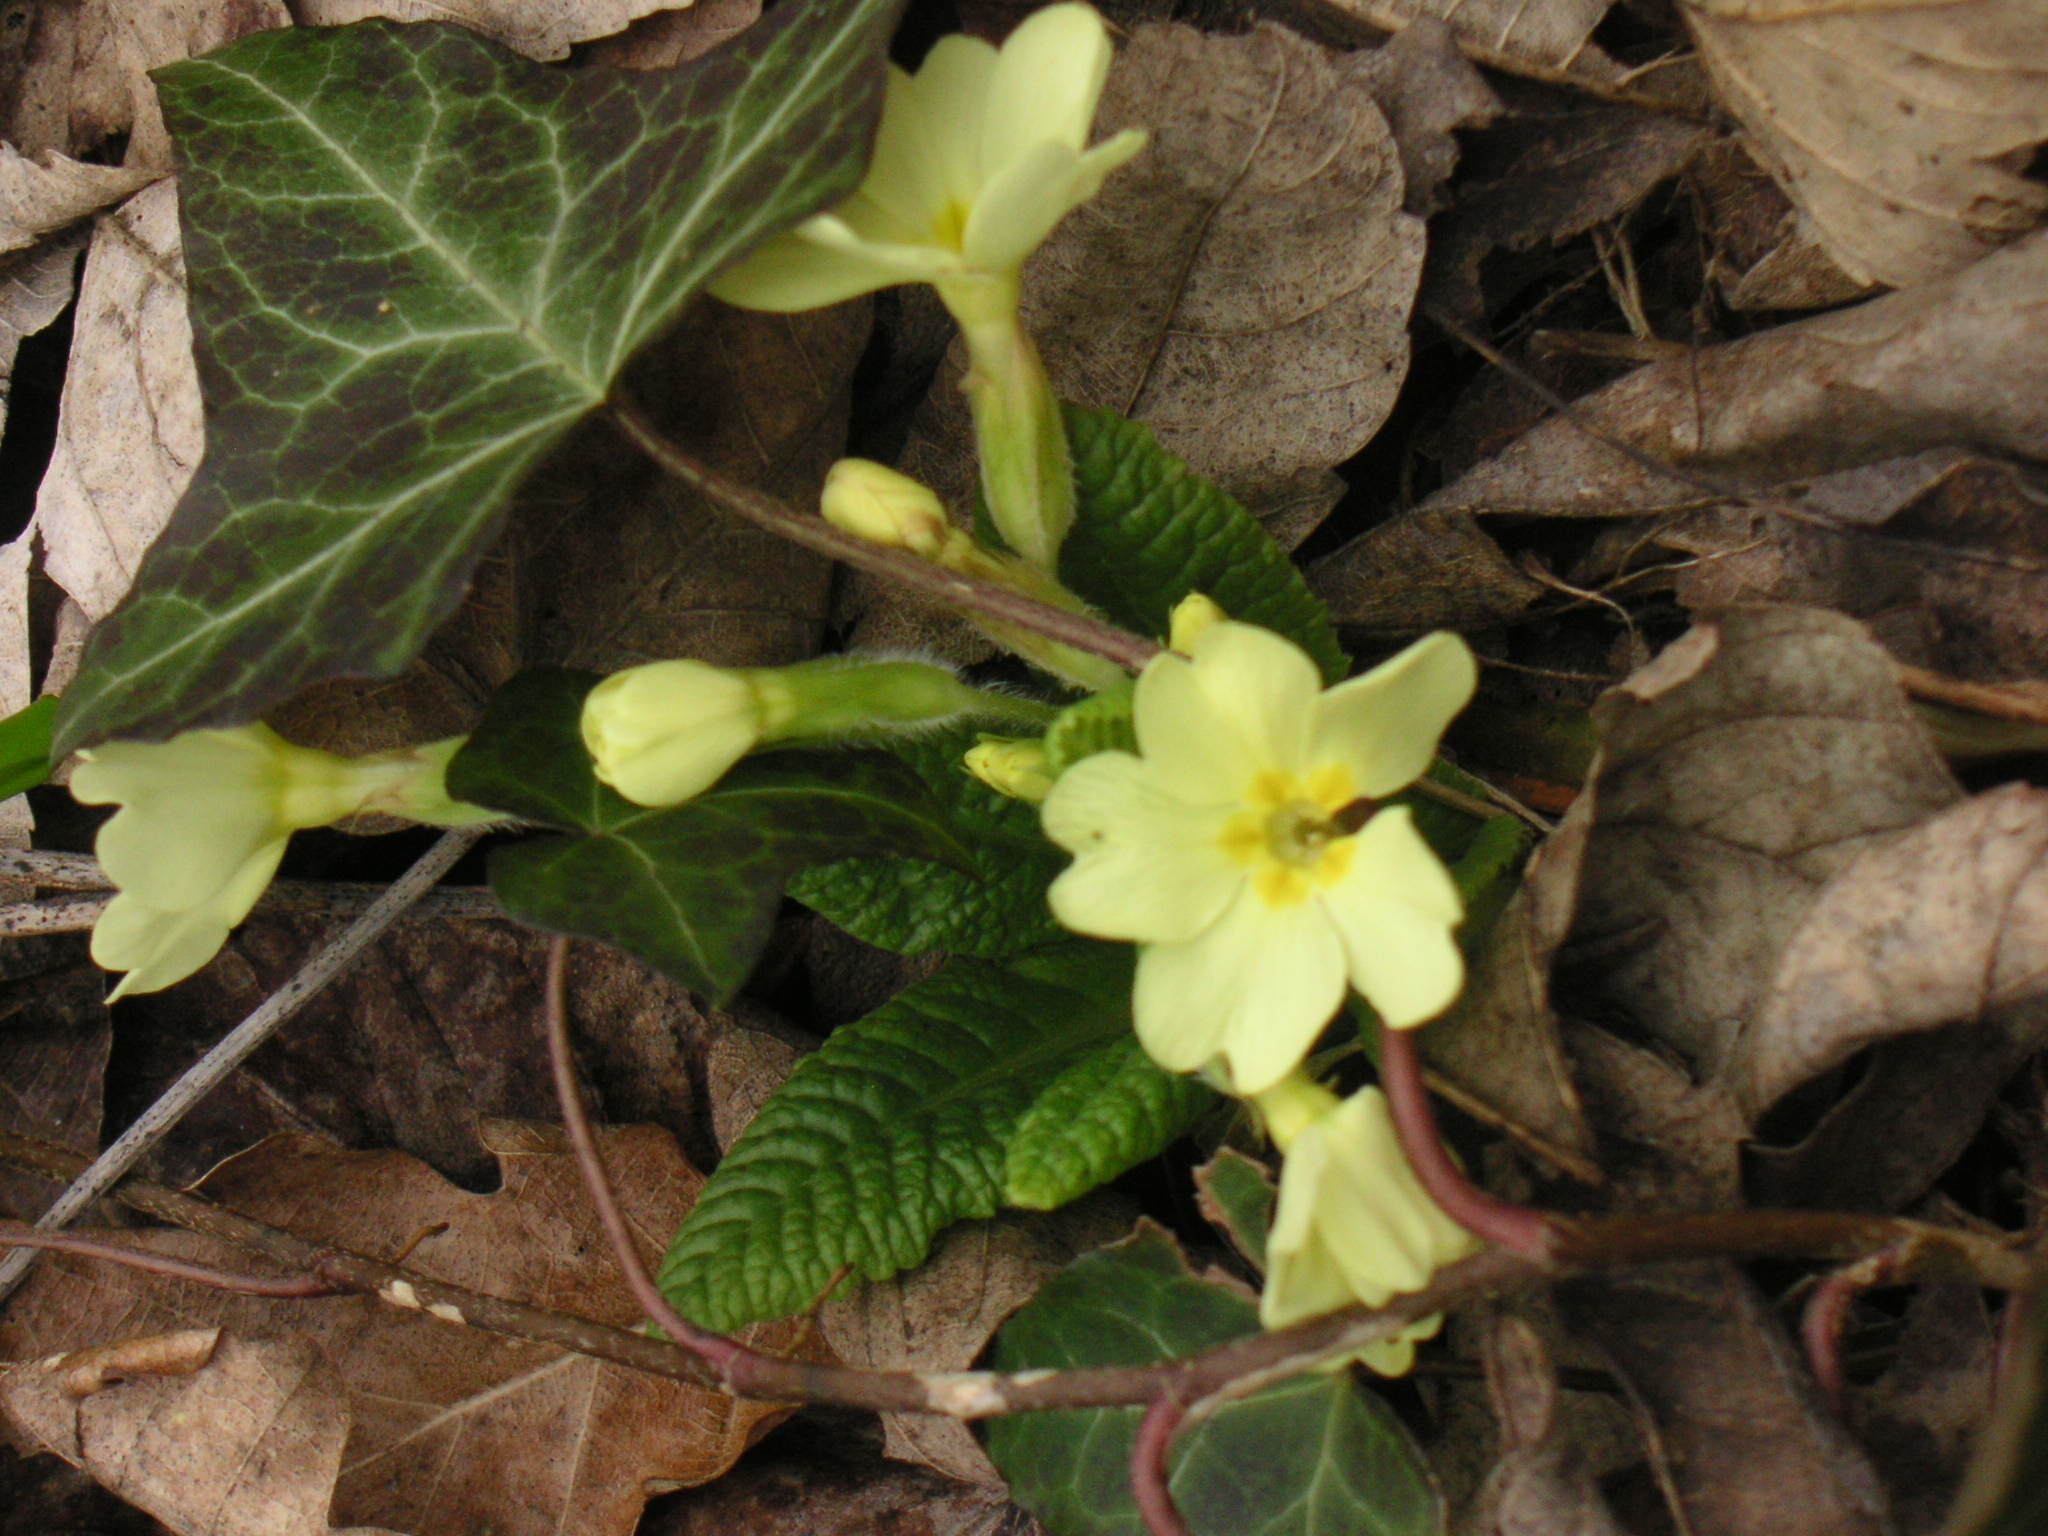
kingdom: Plantae
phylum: Tracheophyta
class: Magnoliopsida
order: Ericales
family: Primulaceae
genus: Primula
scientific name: Primula vulgaris
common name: Primrose
